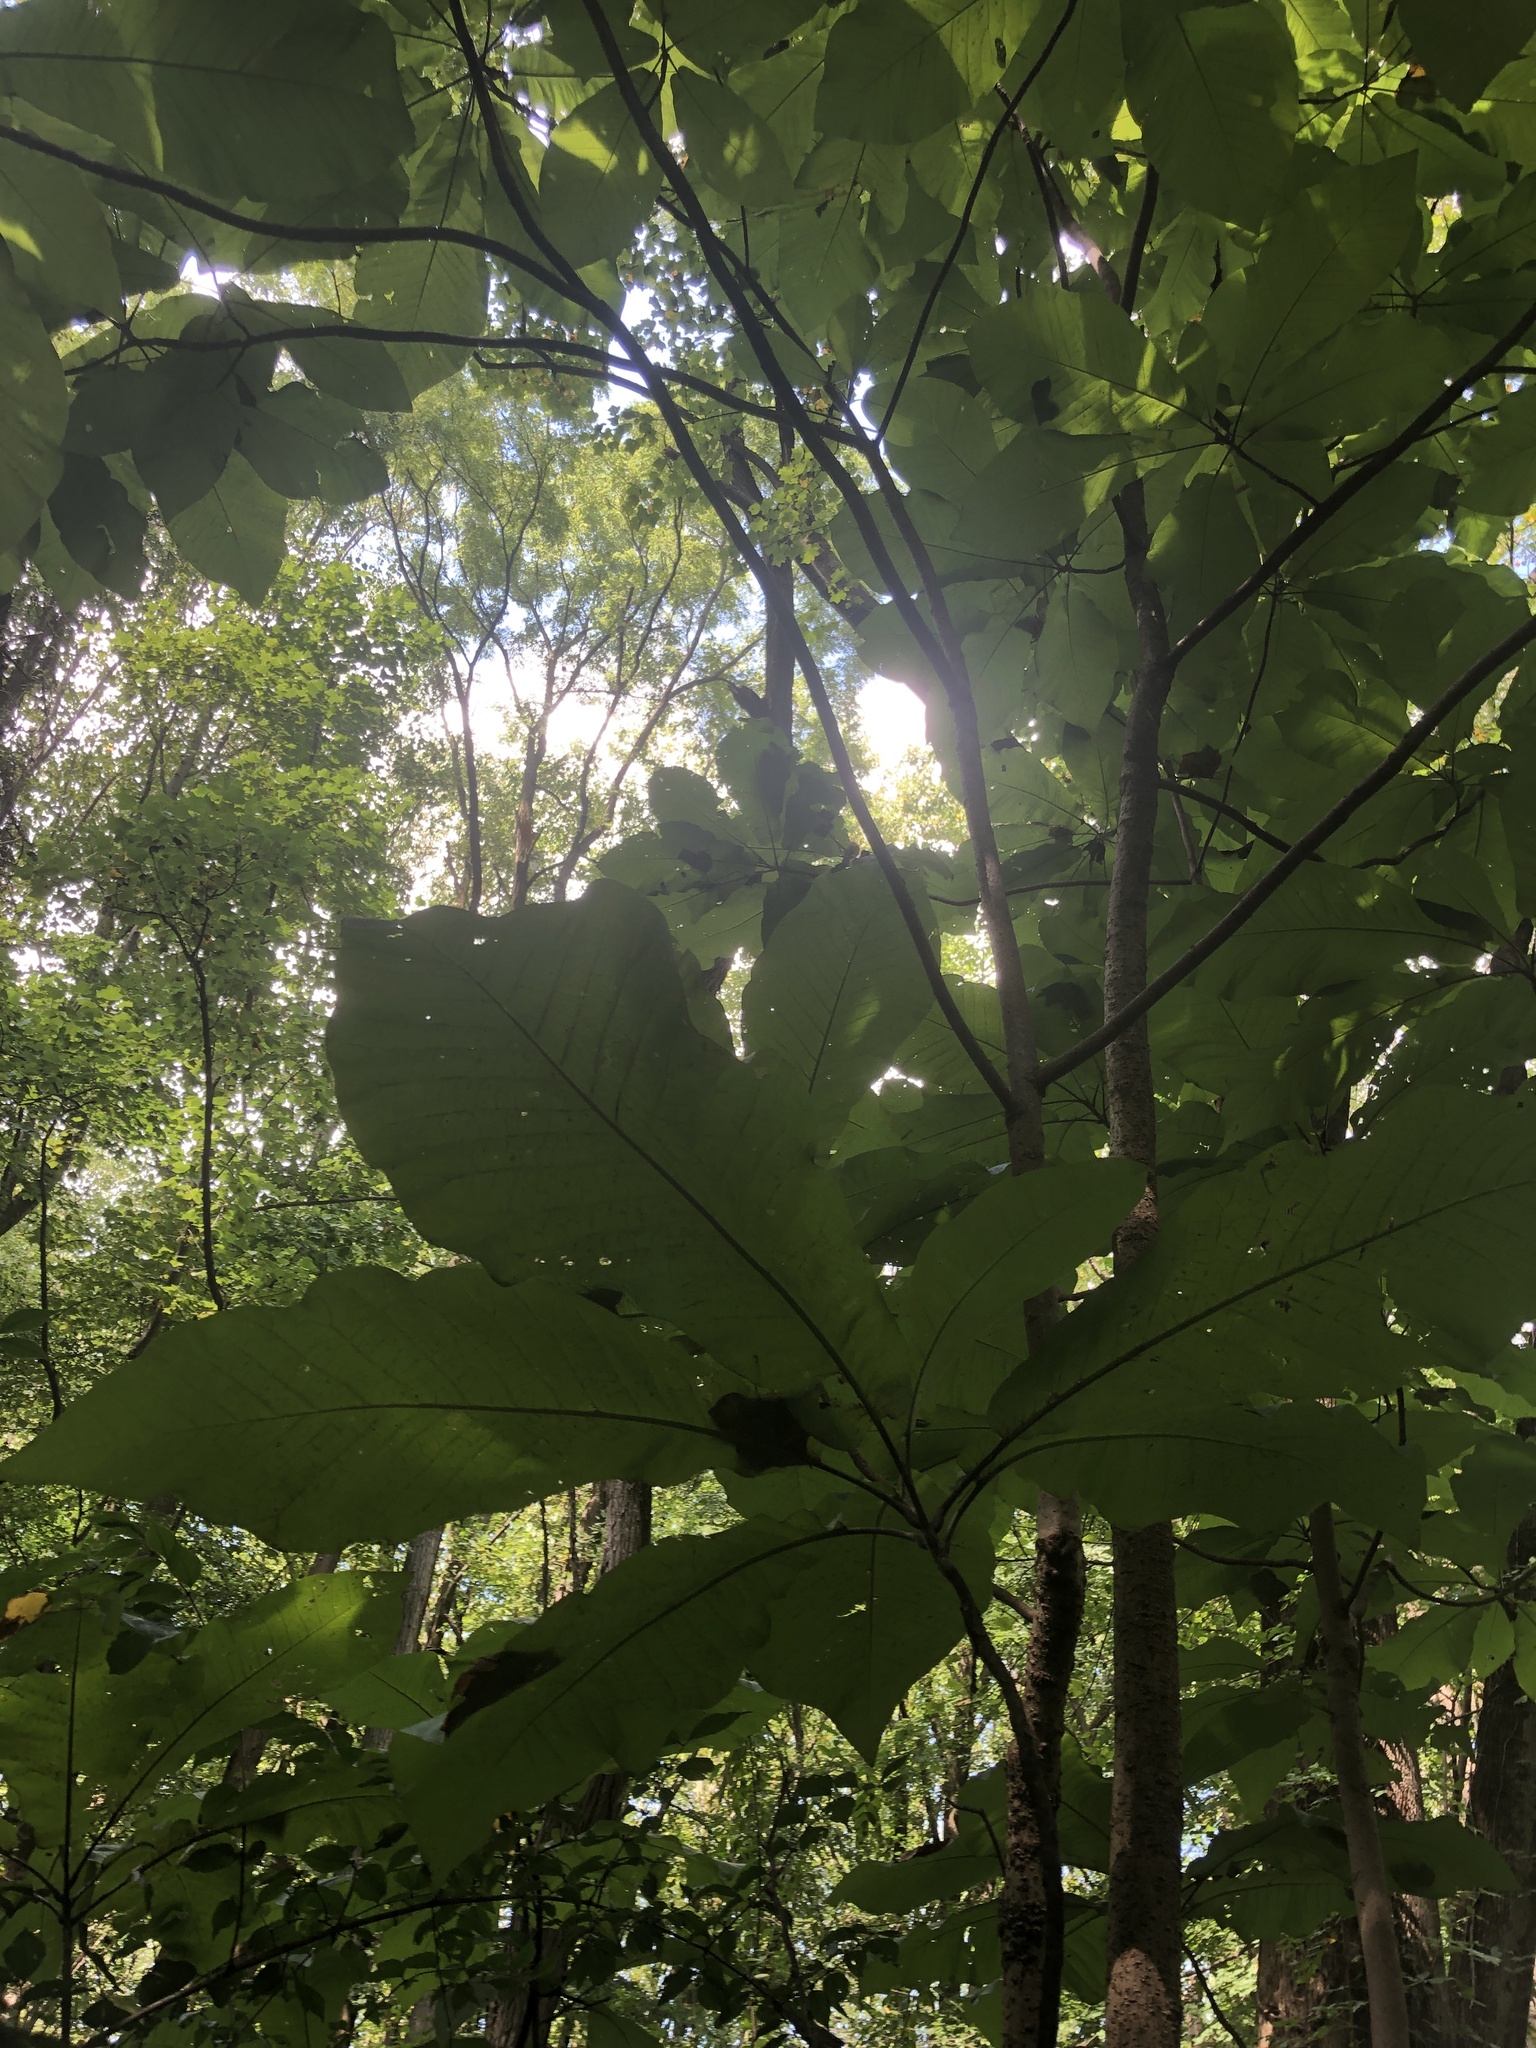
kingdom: Plantae
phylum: Tracheophyta
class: Magnoliopsida
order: Magnoliales
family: Magnoliaceae
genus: Magnolia
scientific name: Magnolia macrophylla
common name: Big-leaf magnolia
